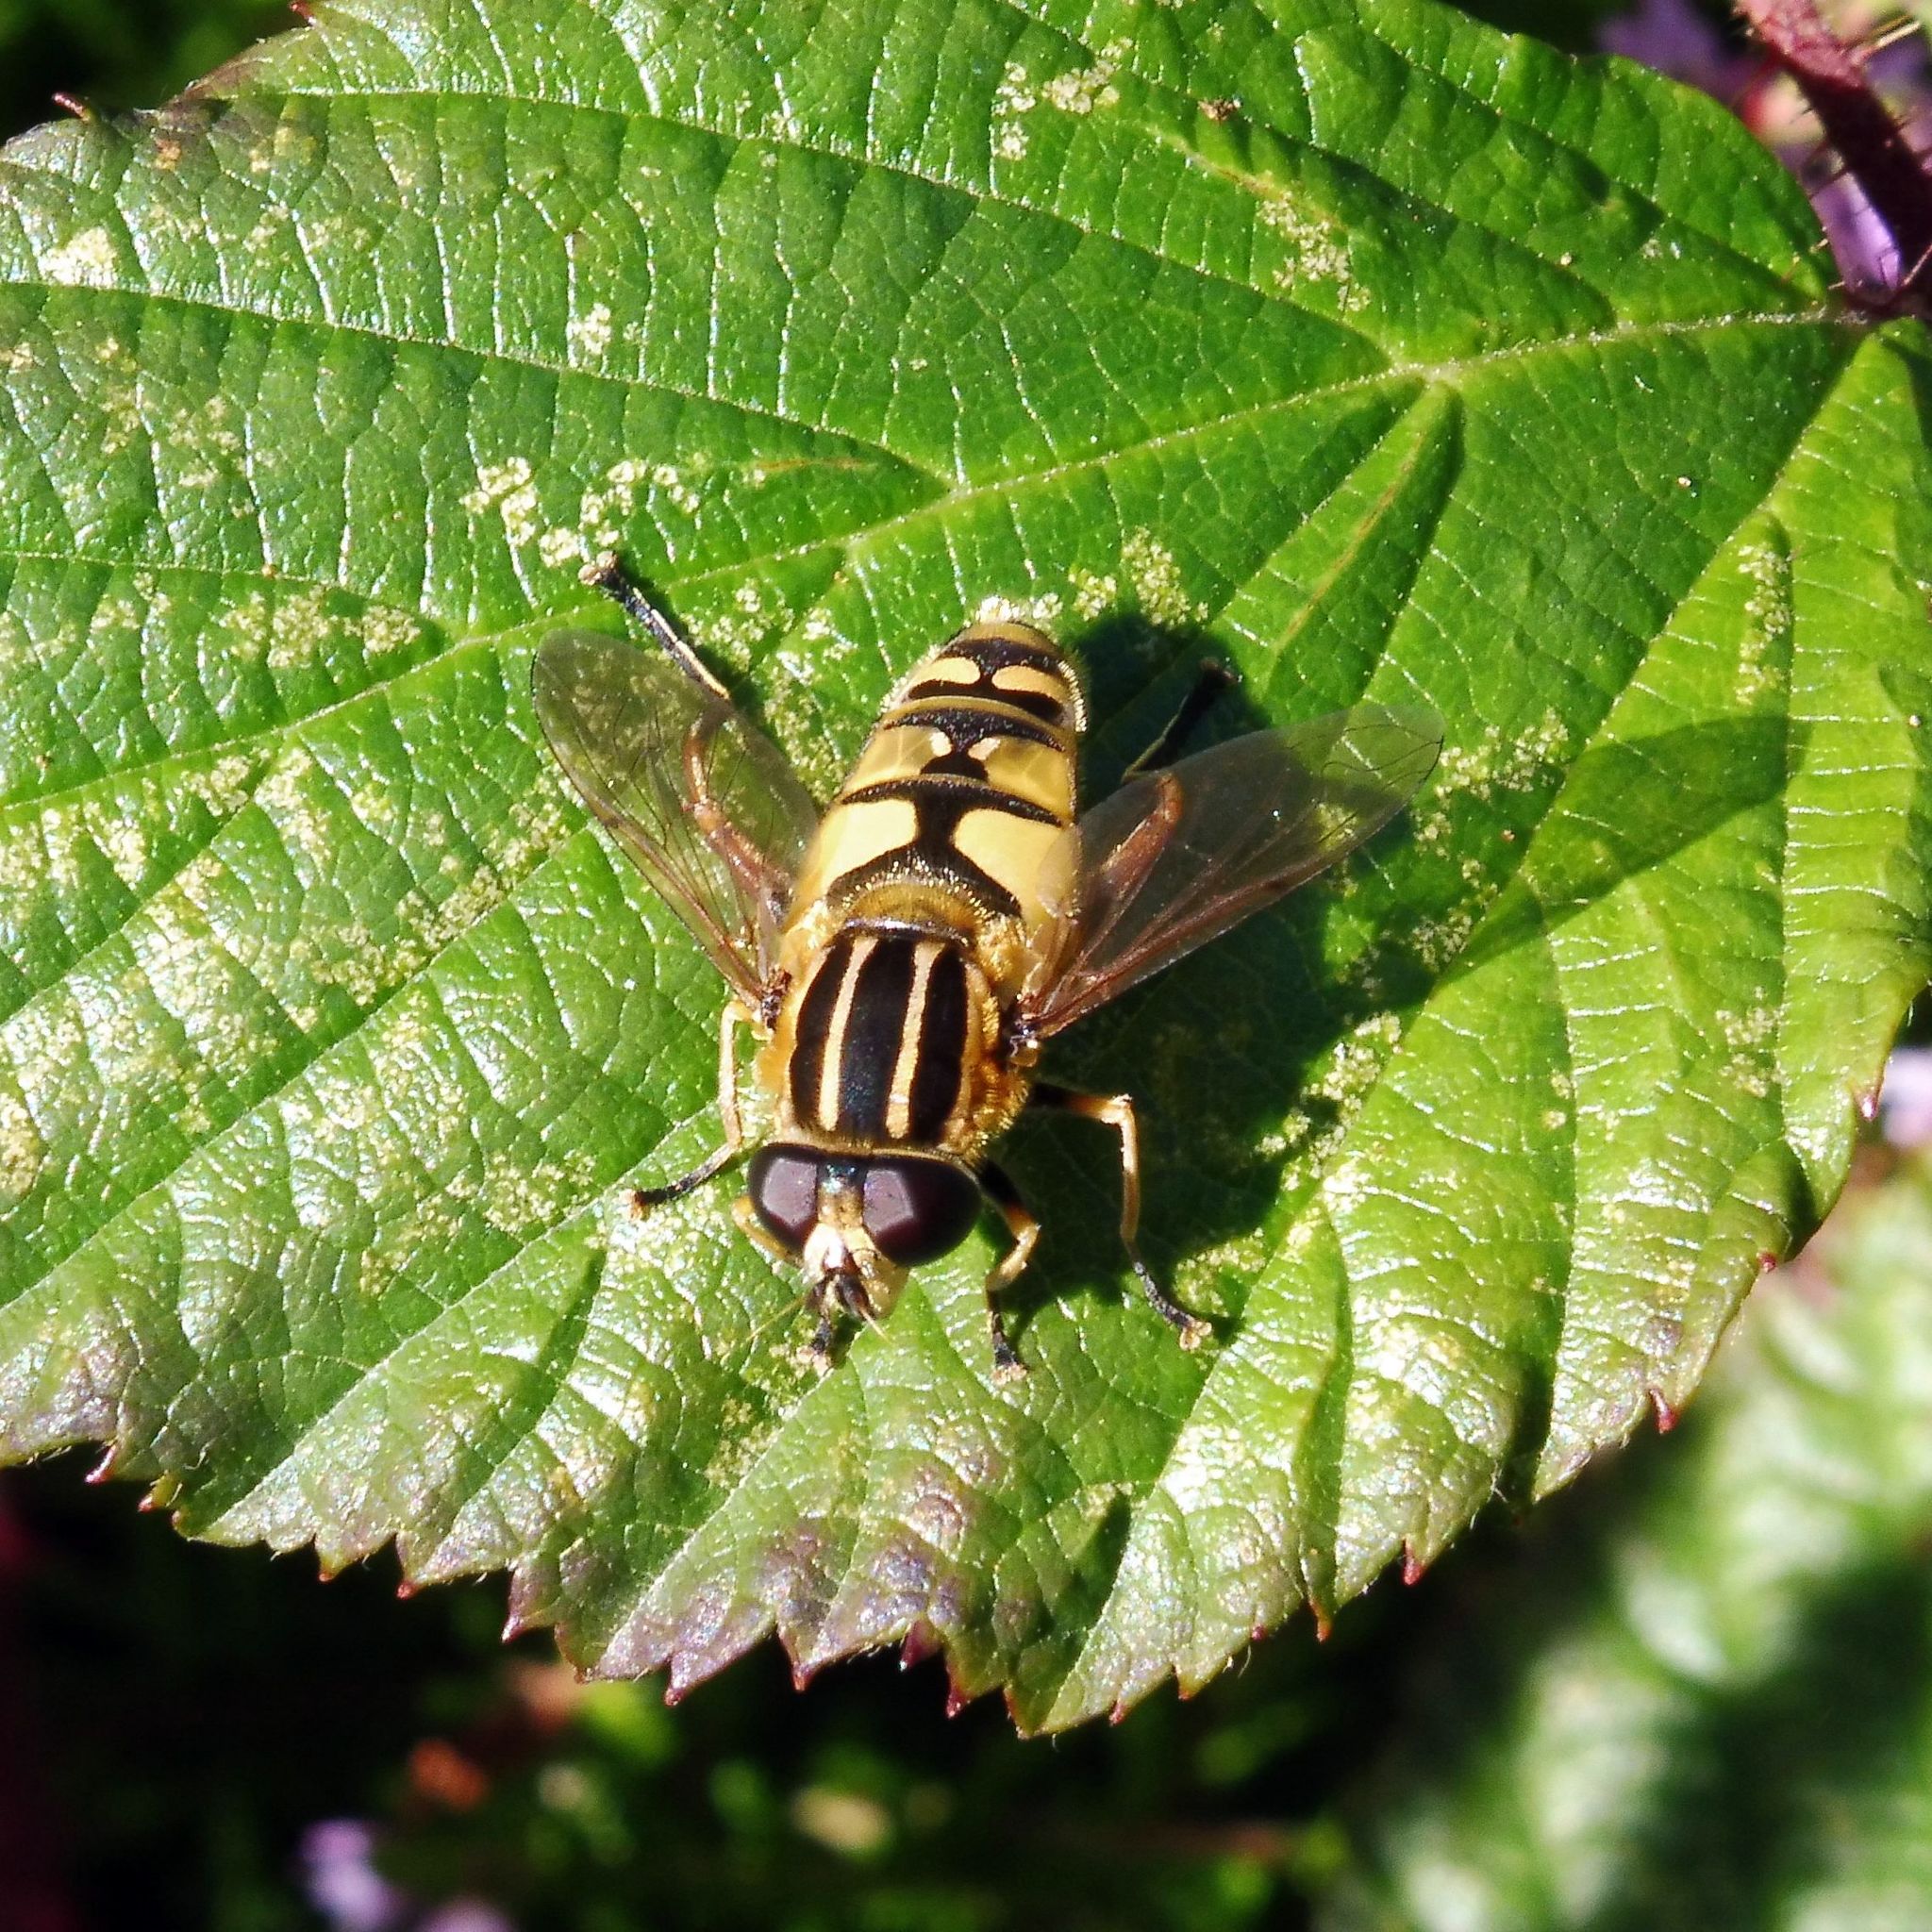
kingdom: Animalia
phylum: Arthropoda
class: Insecta
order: Diptera
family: Syrphidae
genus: Helophilus
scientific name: Helophilus pendulus
